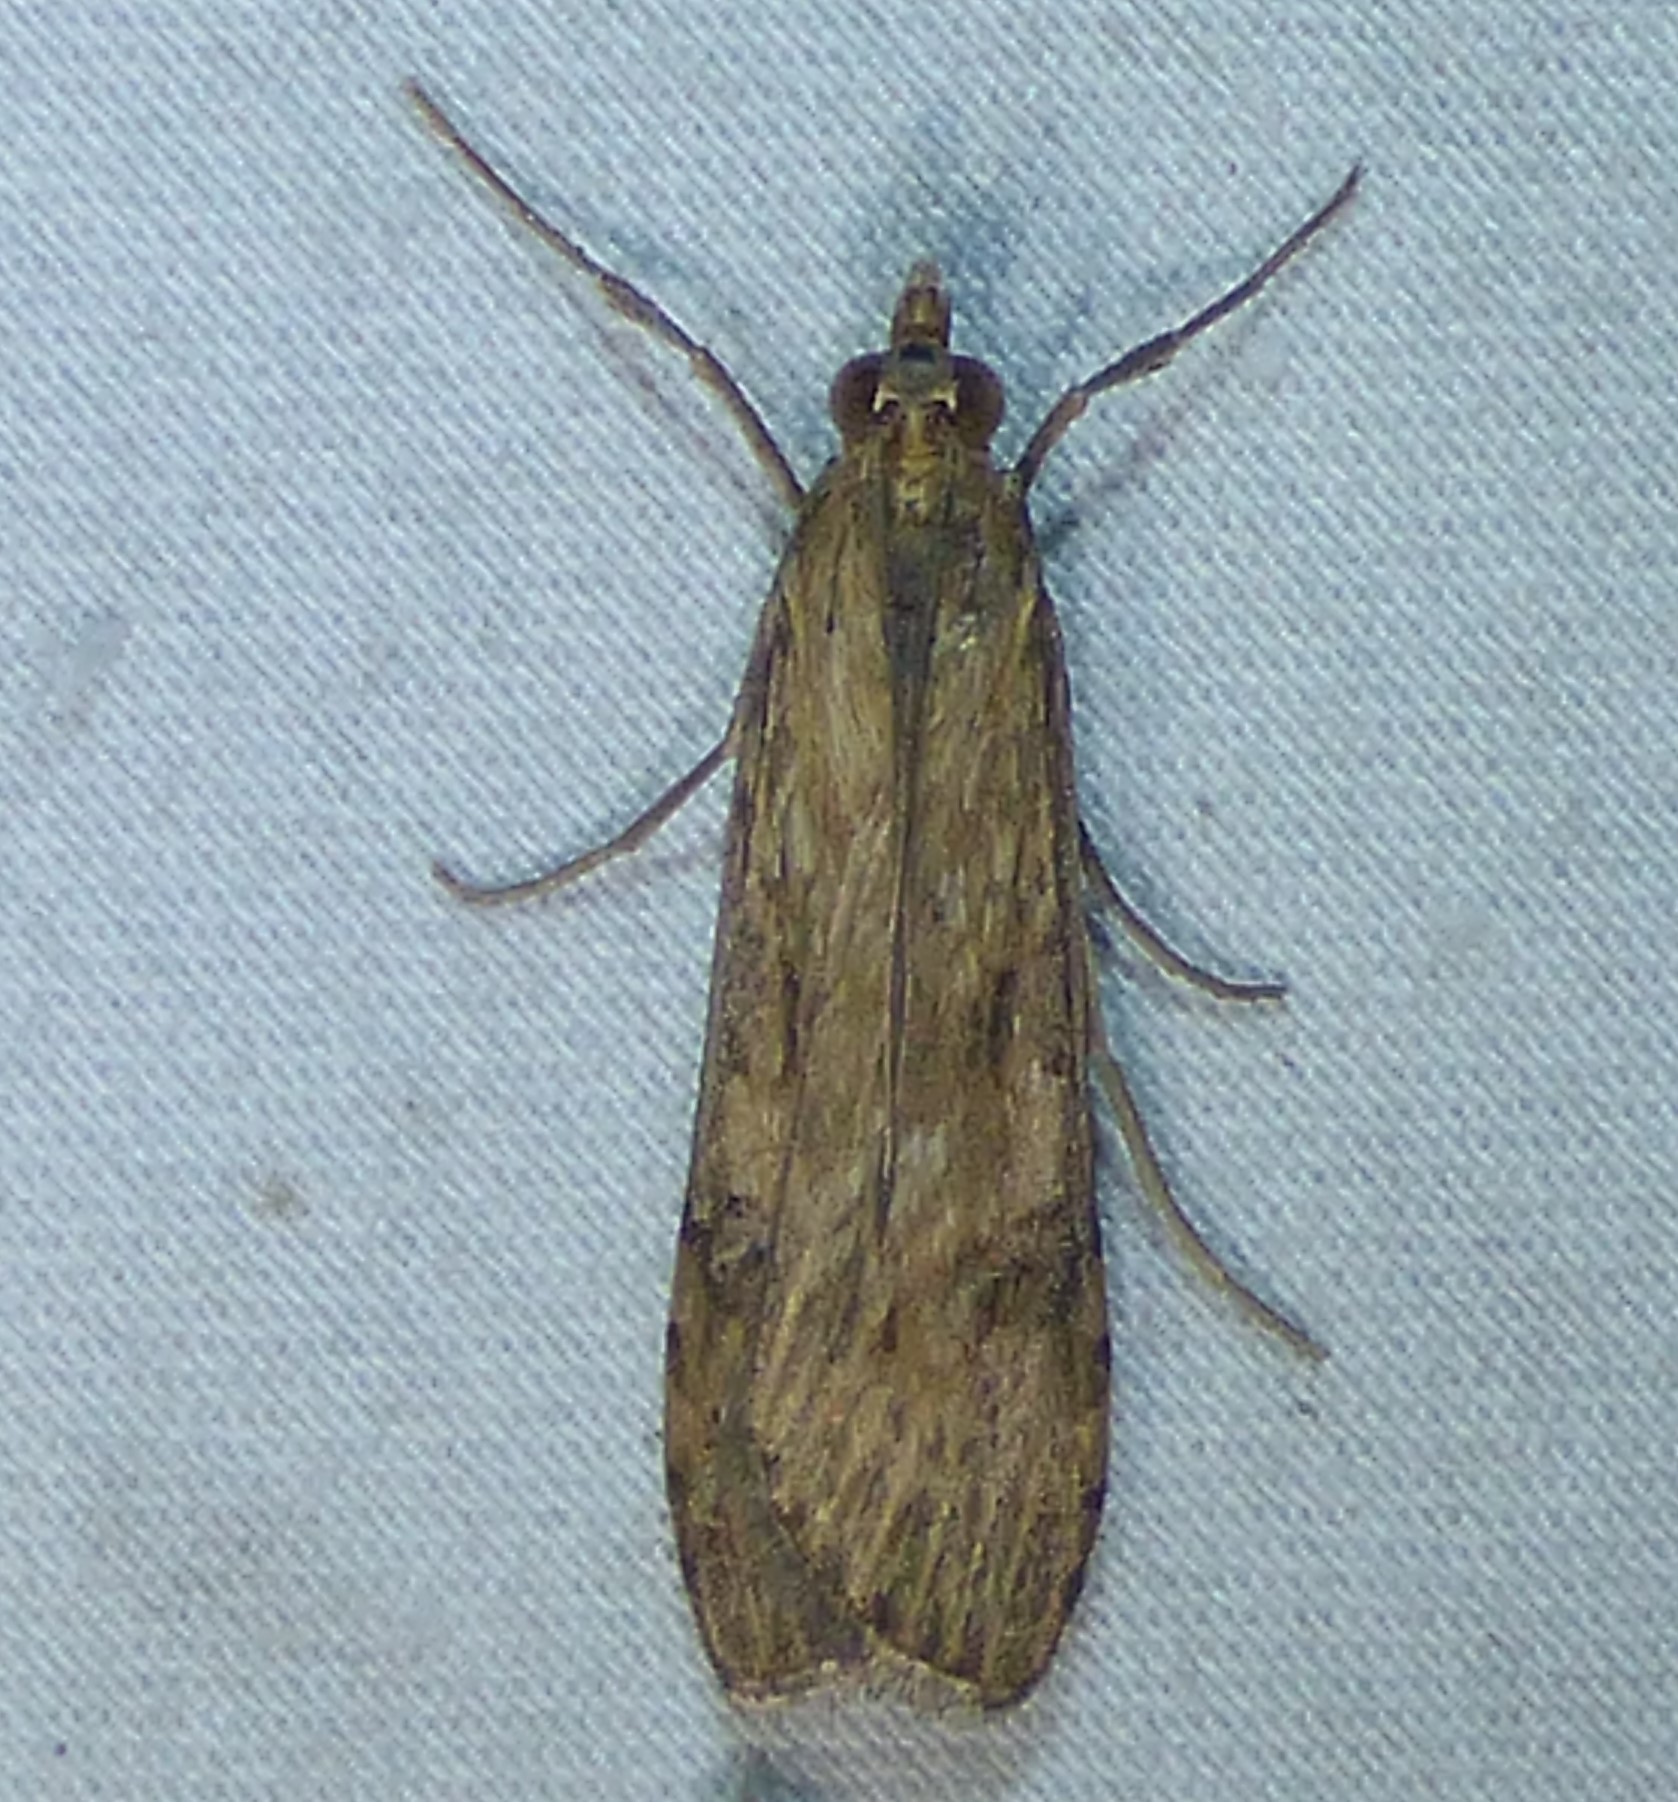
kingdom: Animalia
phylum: Arthropoda
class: Insecta
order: Lepidoptera
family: Crambidae
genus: Nomophila
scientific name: Nomophila nearctica
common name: American rush veneer
